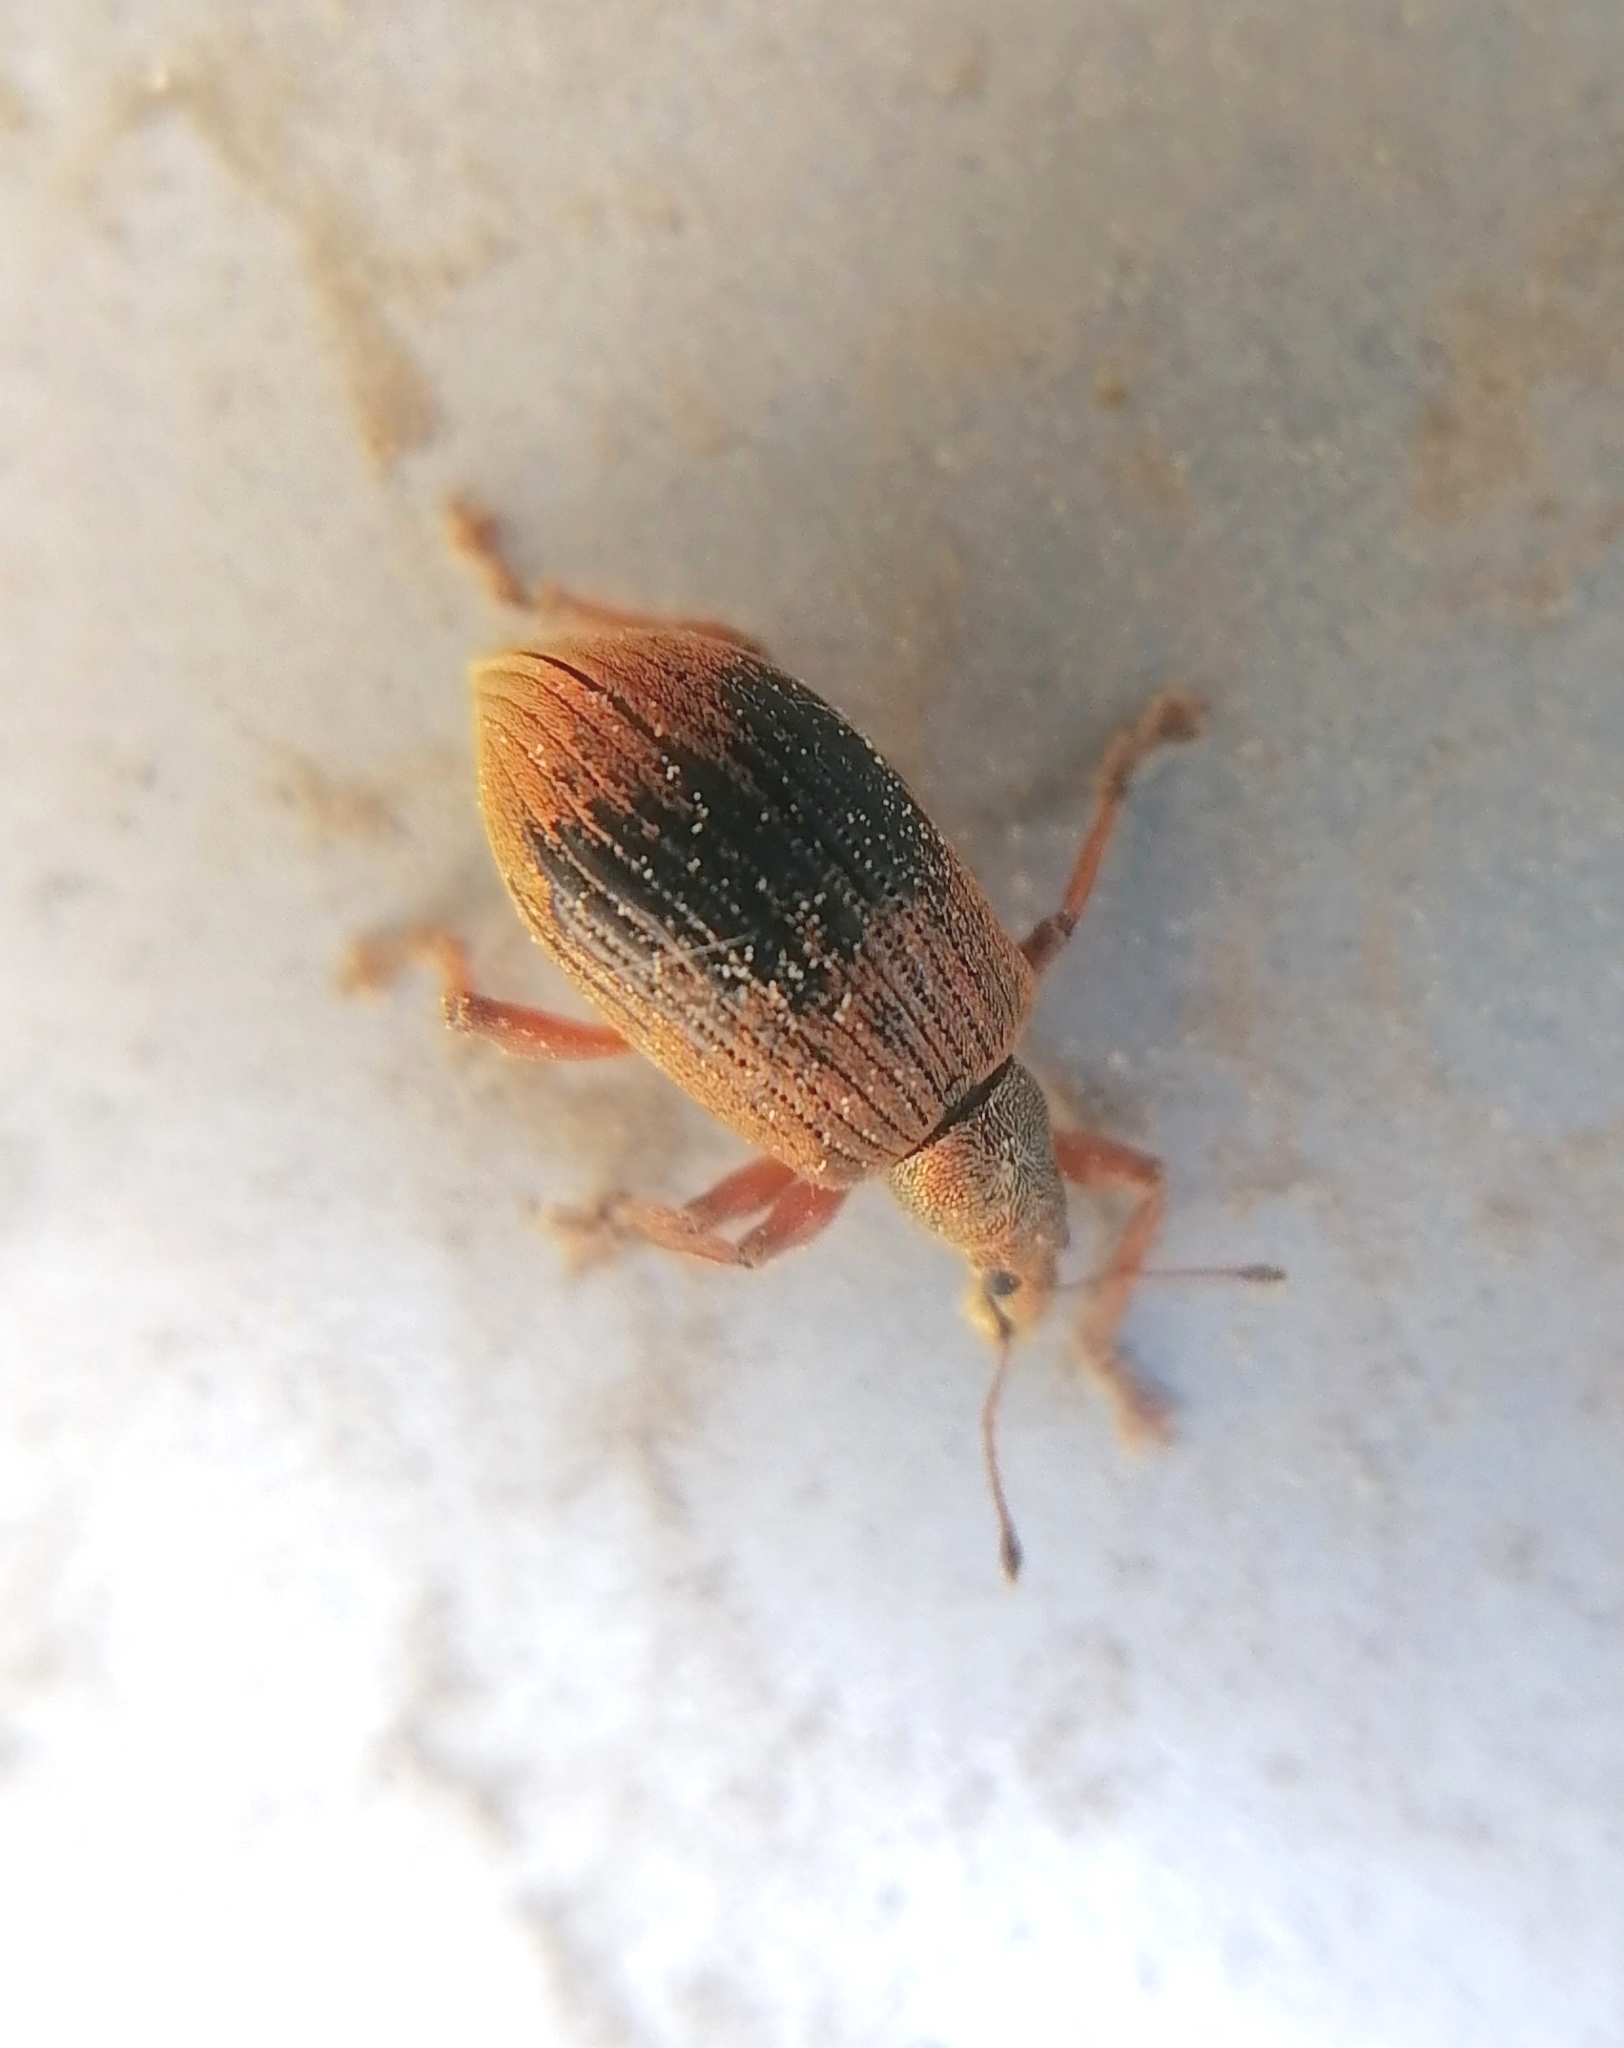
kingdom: Animalia
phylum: Arthropoda
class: Insecta
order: Coleoptera
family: Curculionidae
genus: Polydrusus
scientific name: Polydrusus mollis
